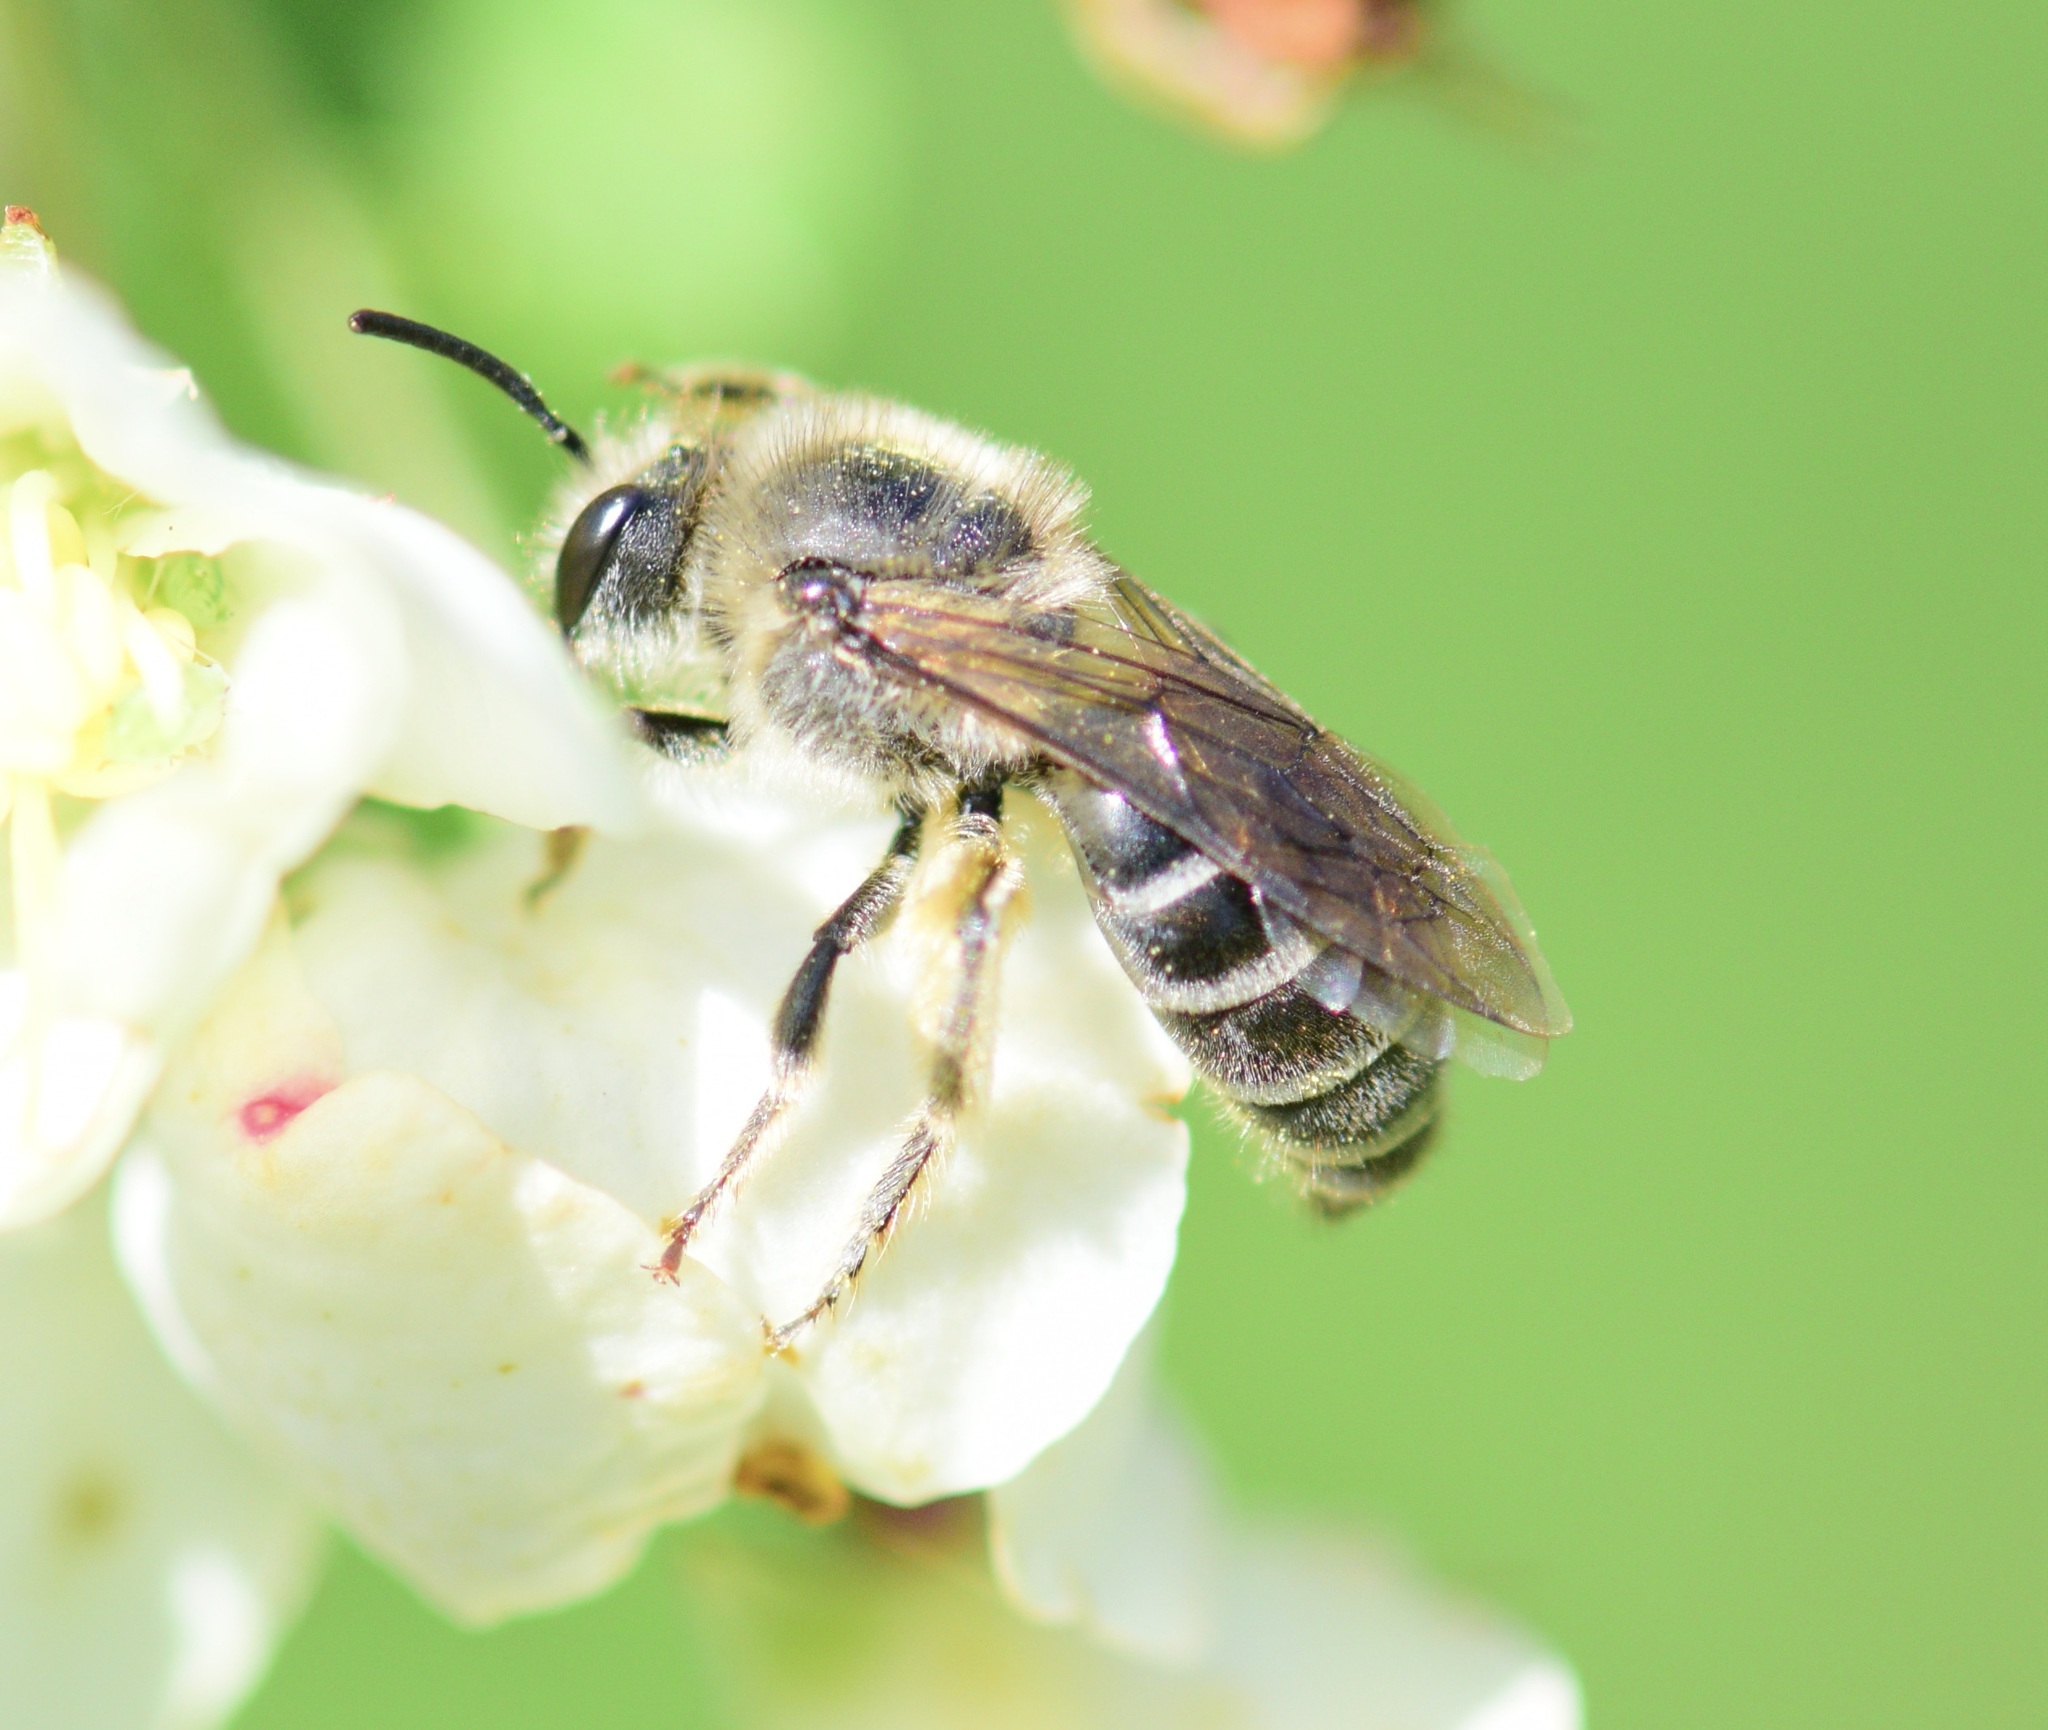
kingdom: Animalia
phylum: Arthropoda
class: Insecta
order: Hymenoptera
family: Colletidae
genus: Colletes
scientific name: Colletes inaequalis
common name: Unequal cellophane bee
